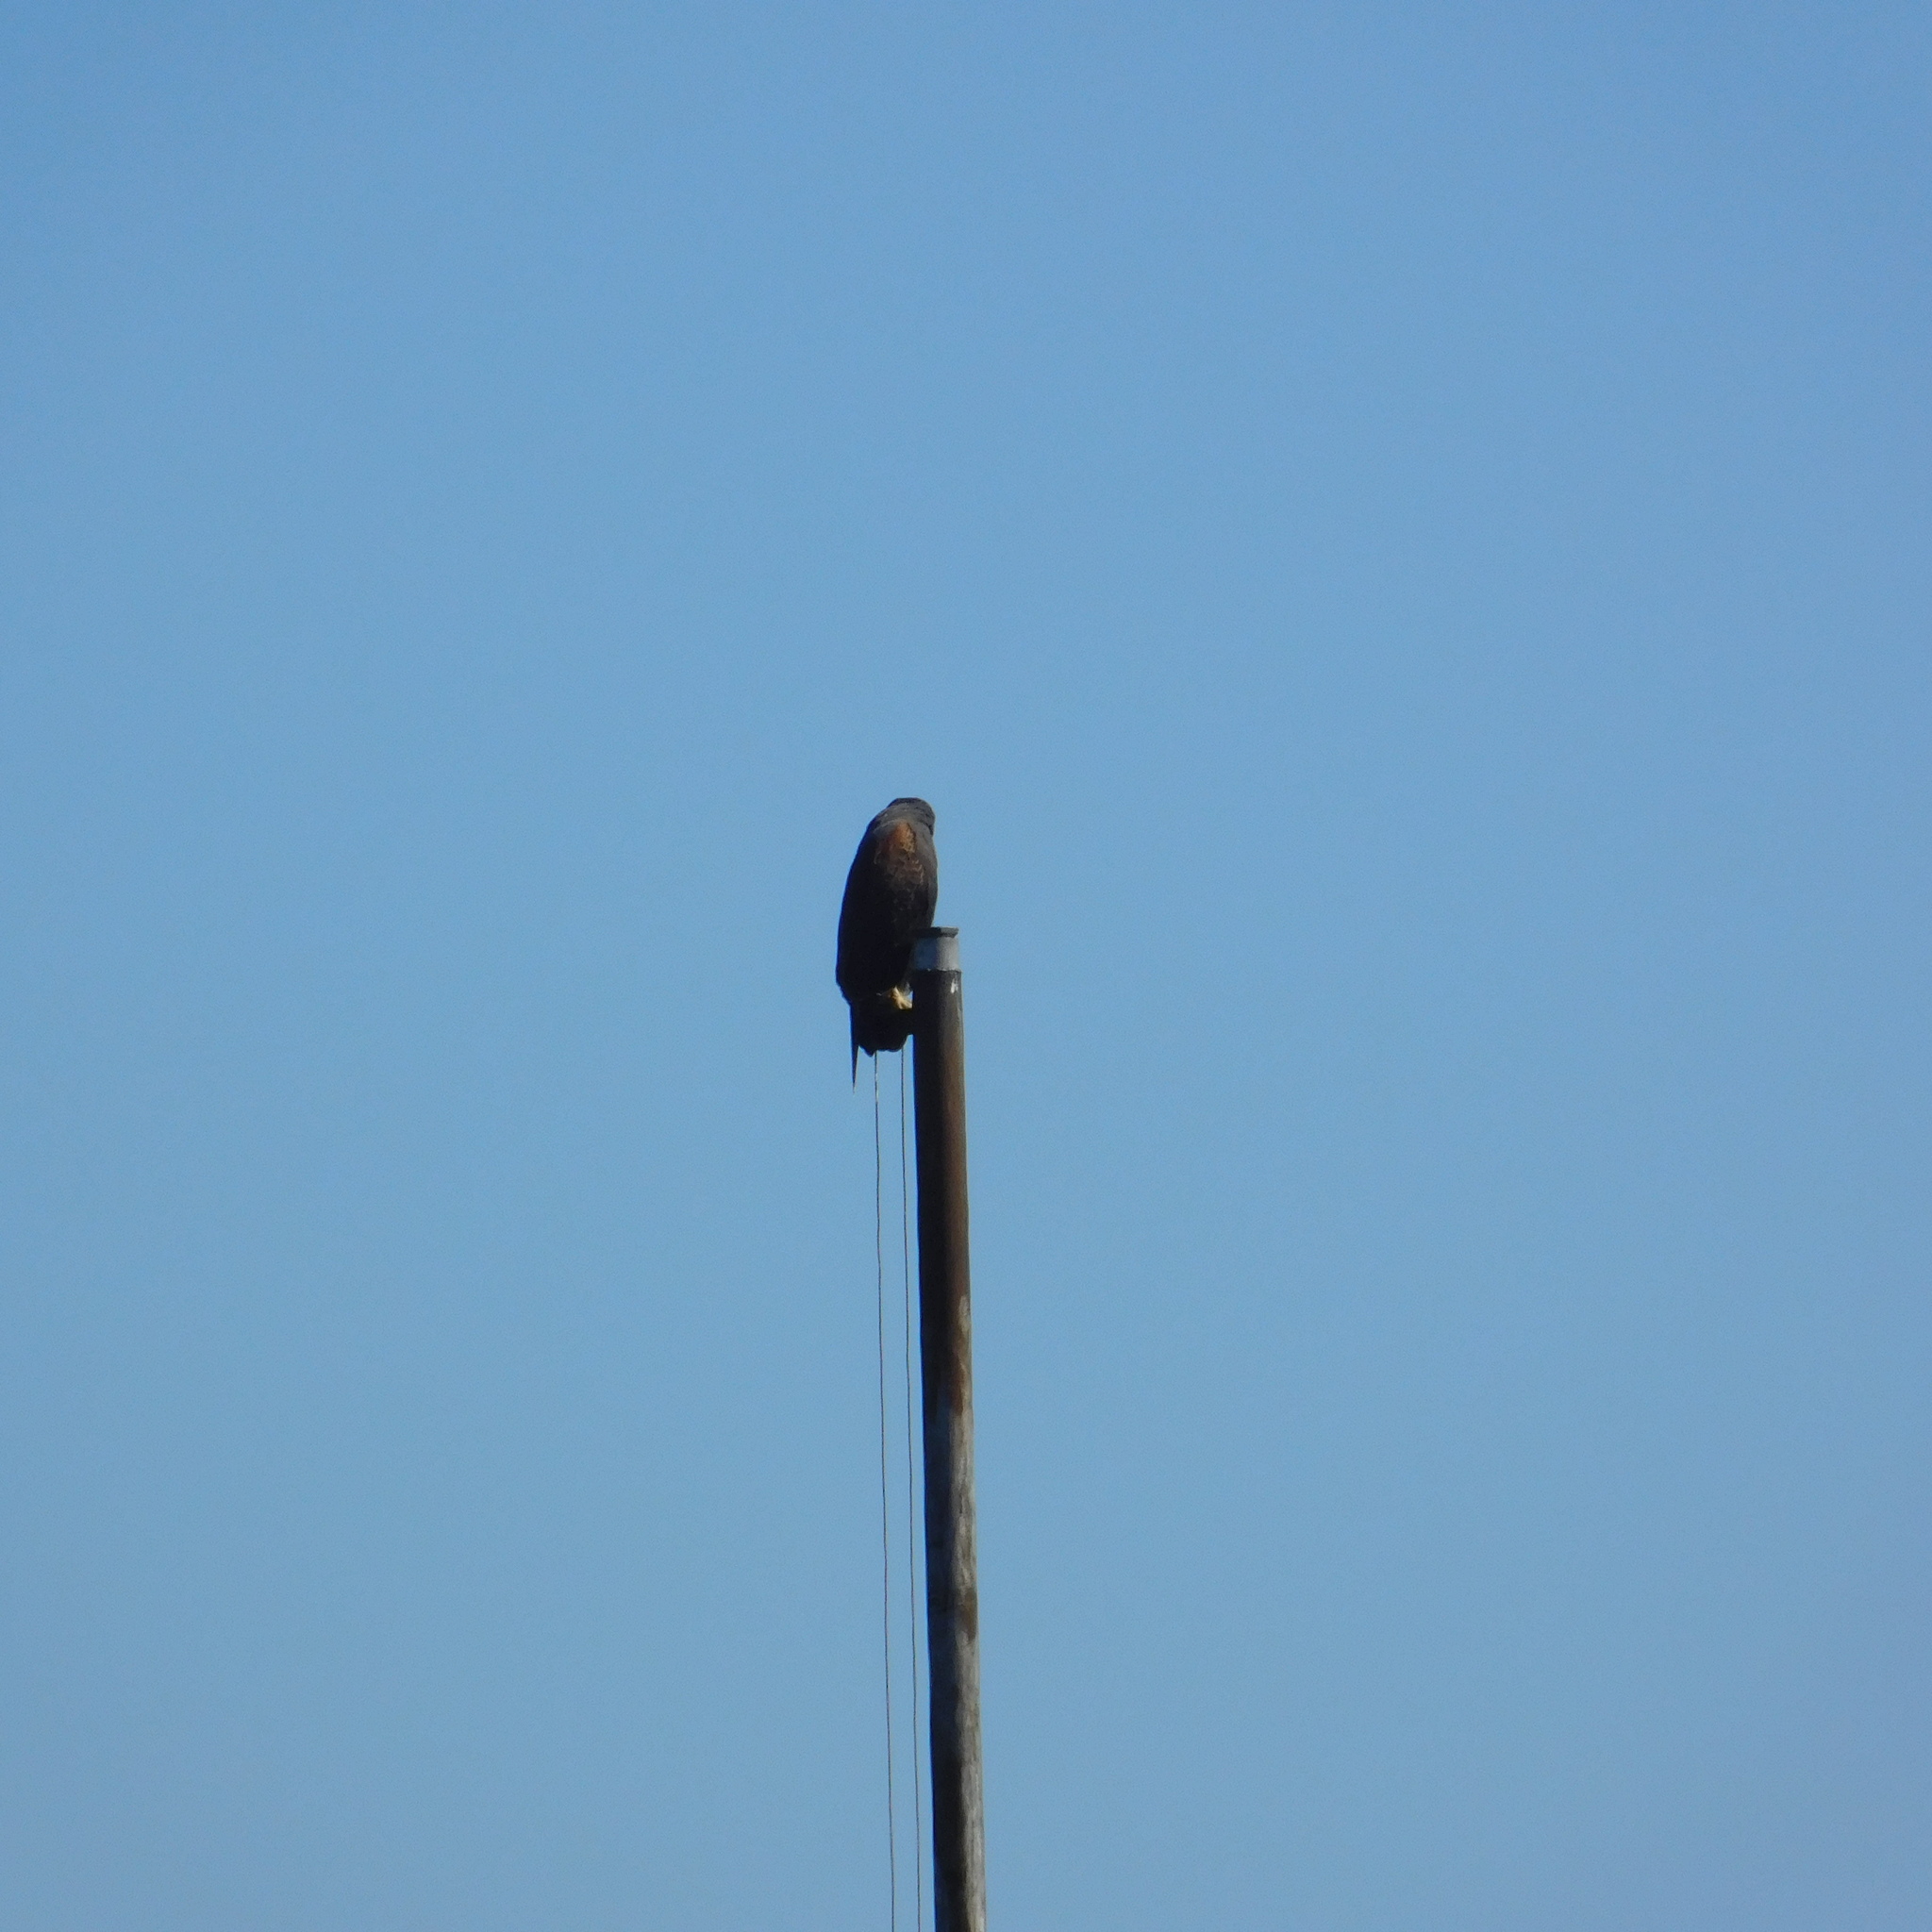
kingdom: Animalia
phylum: Chordata
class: Aves
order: Accipitriformes
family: Accipitridae
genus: Parabuteo
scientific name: Parabuteo unicinctus
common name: Harris's hawk
